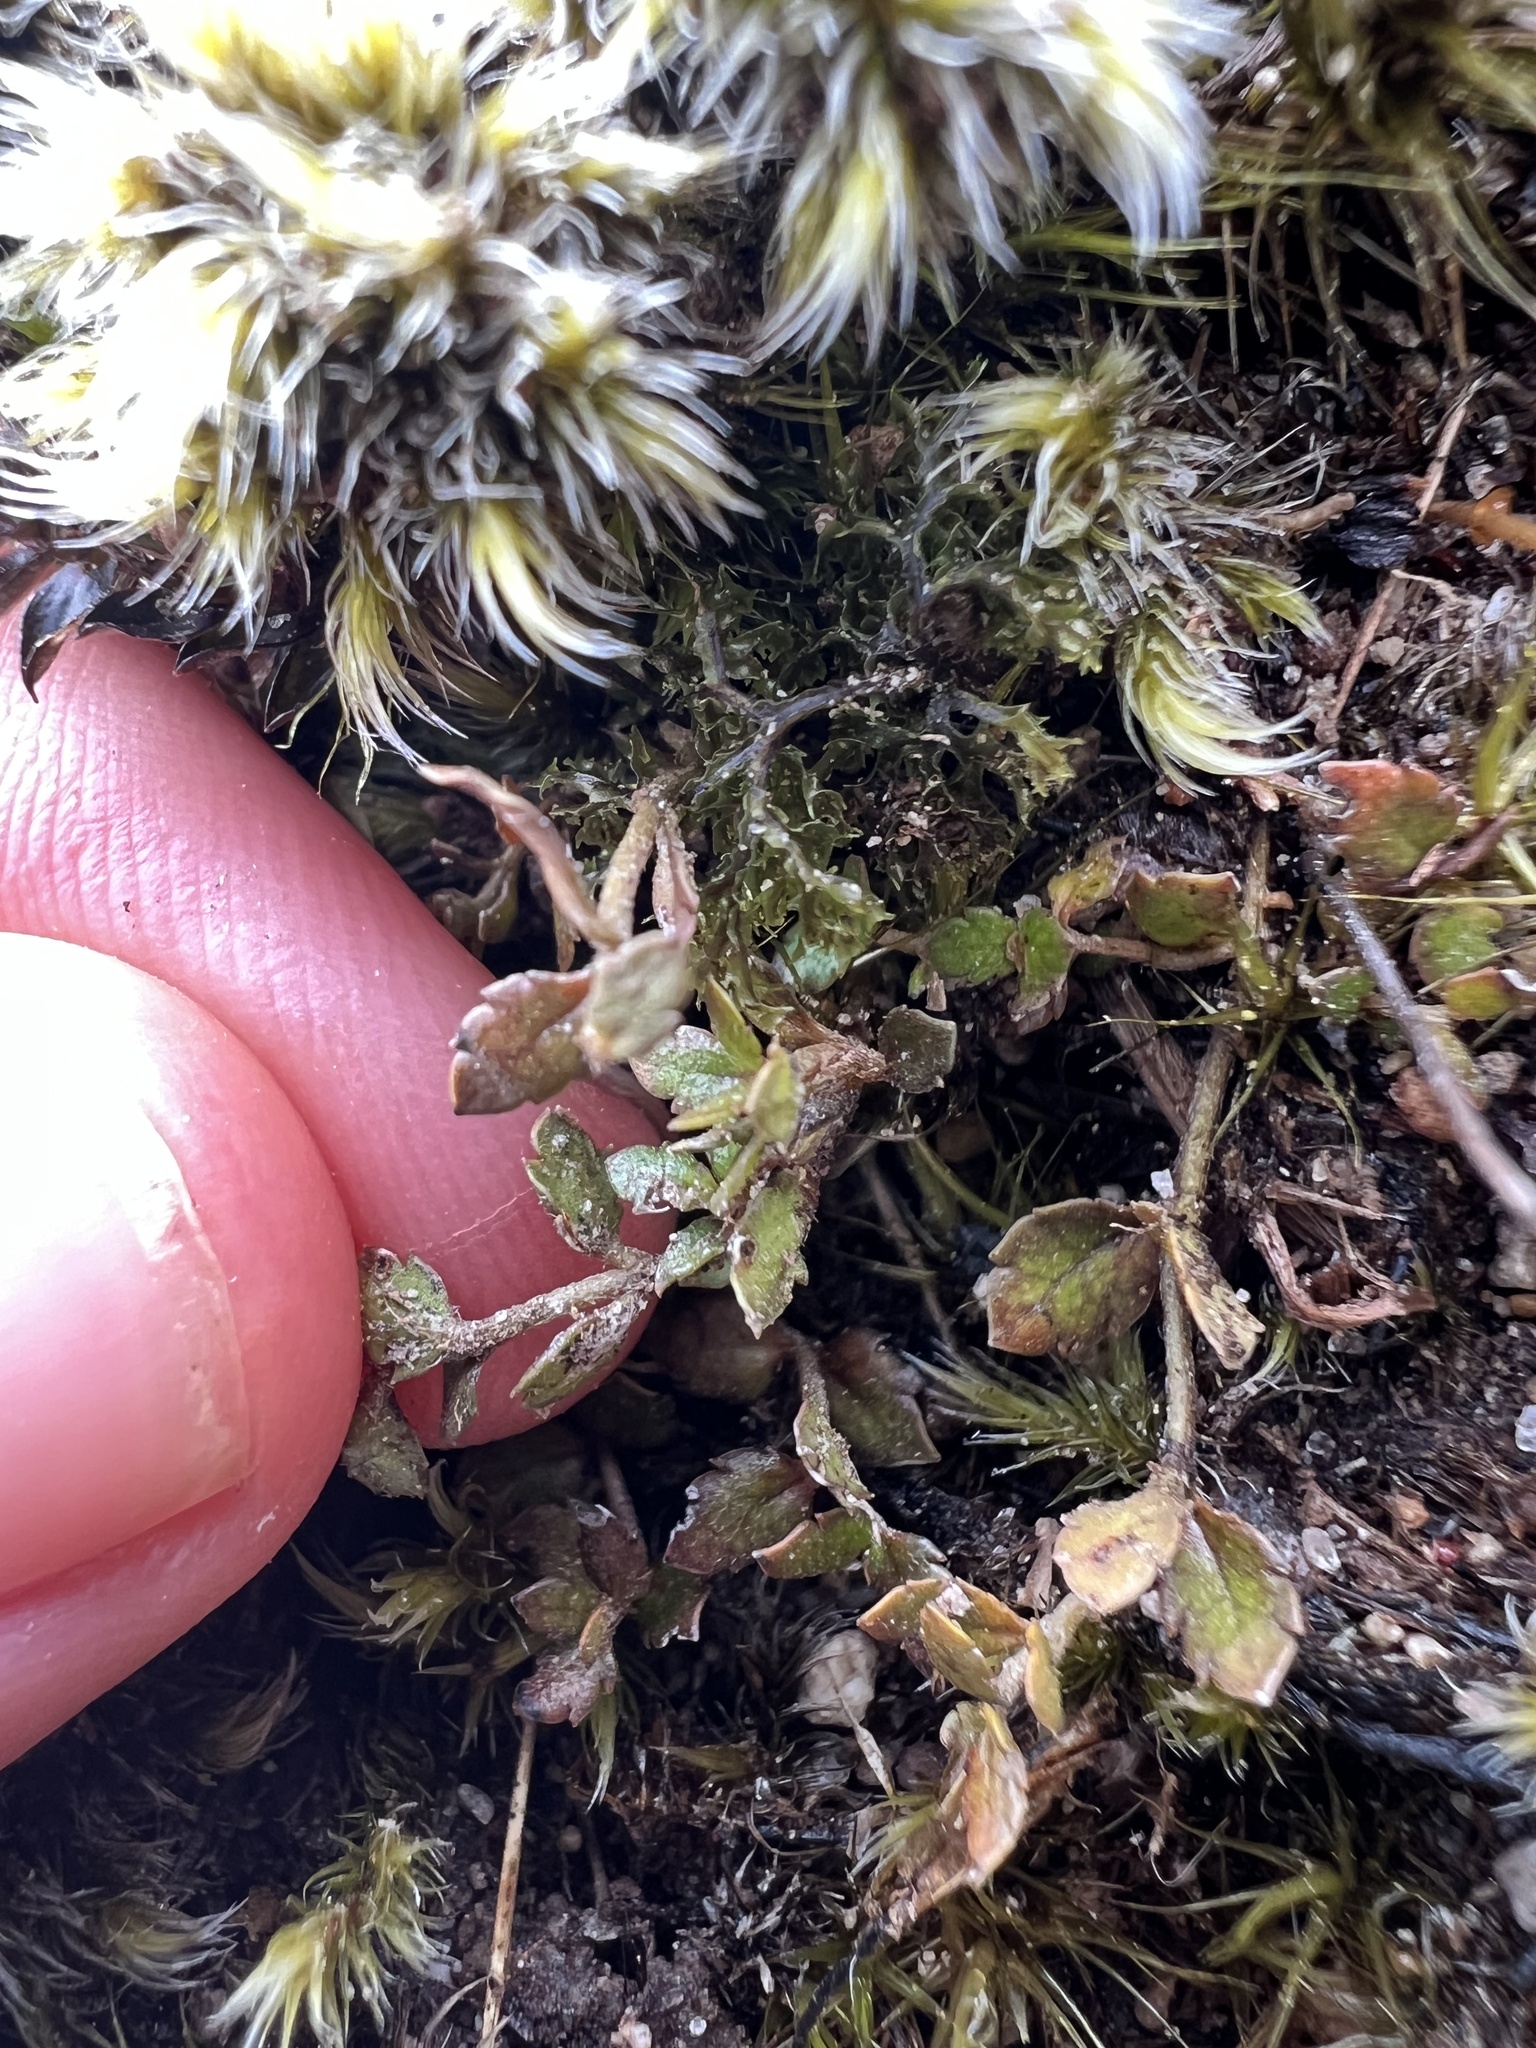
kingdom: Plantae
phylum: Tracheophyta
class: Magnoliopsida
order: Saxifragales
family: Haloragaceae
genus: Gonocarpus
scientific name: Gonocarpus aggregatus
